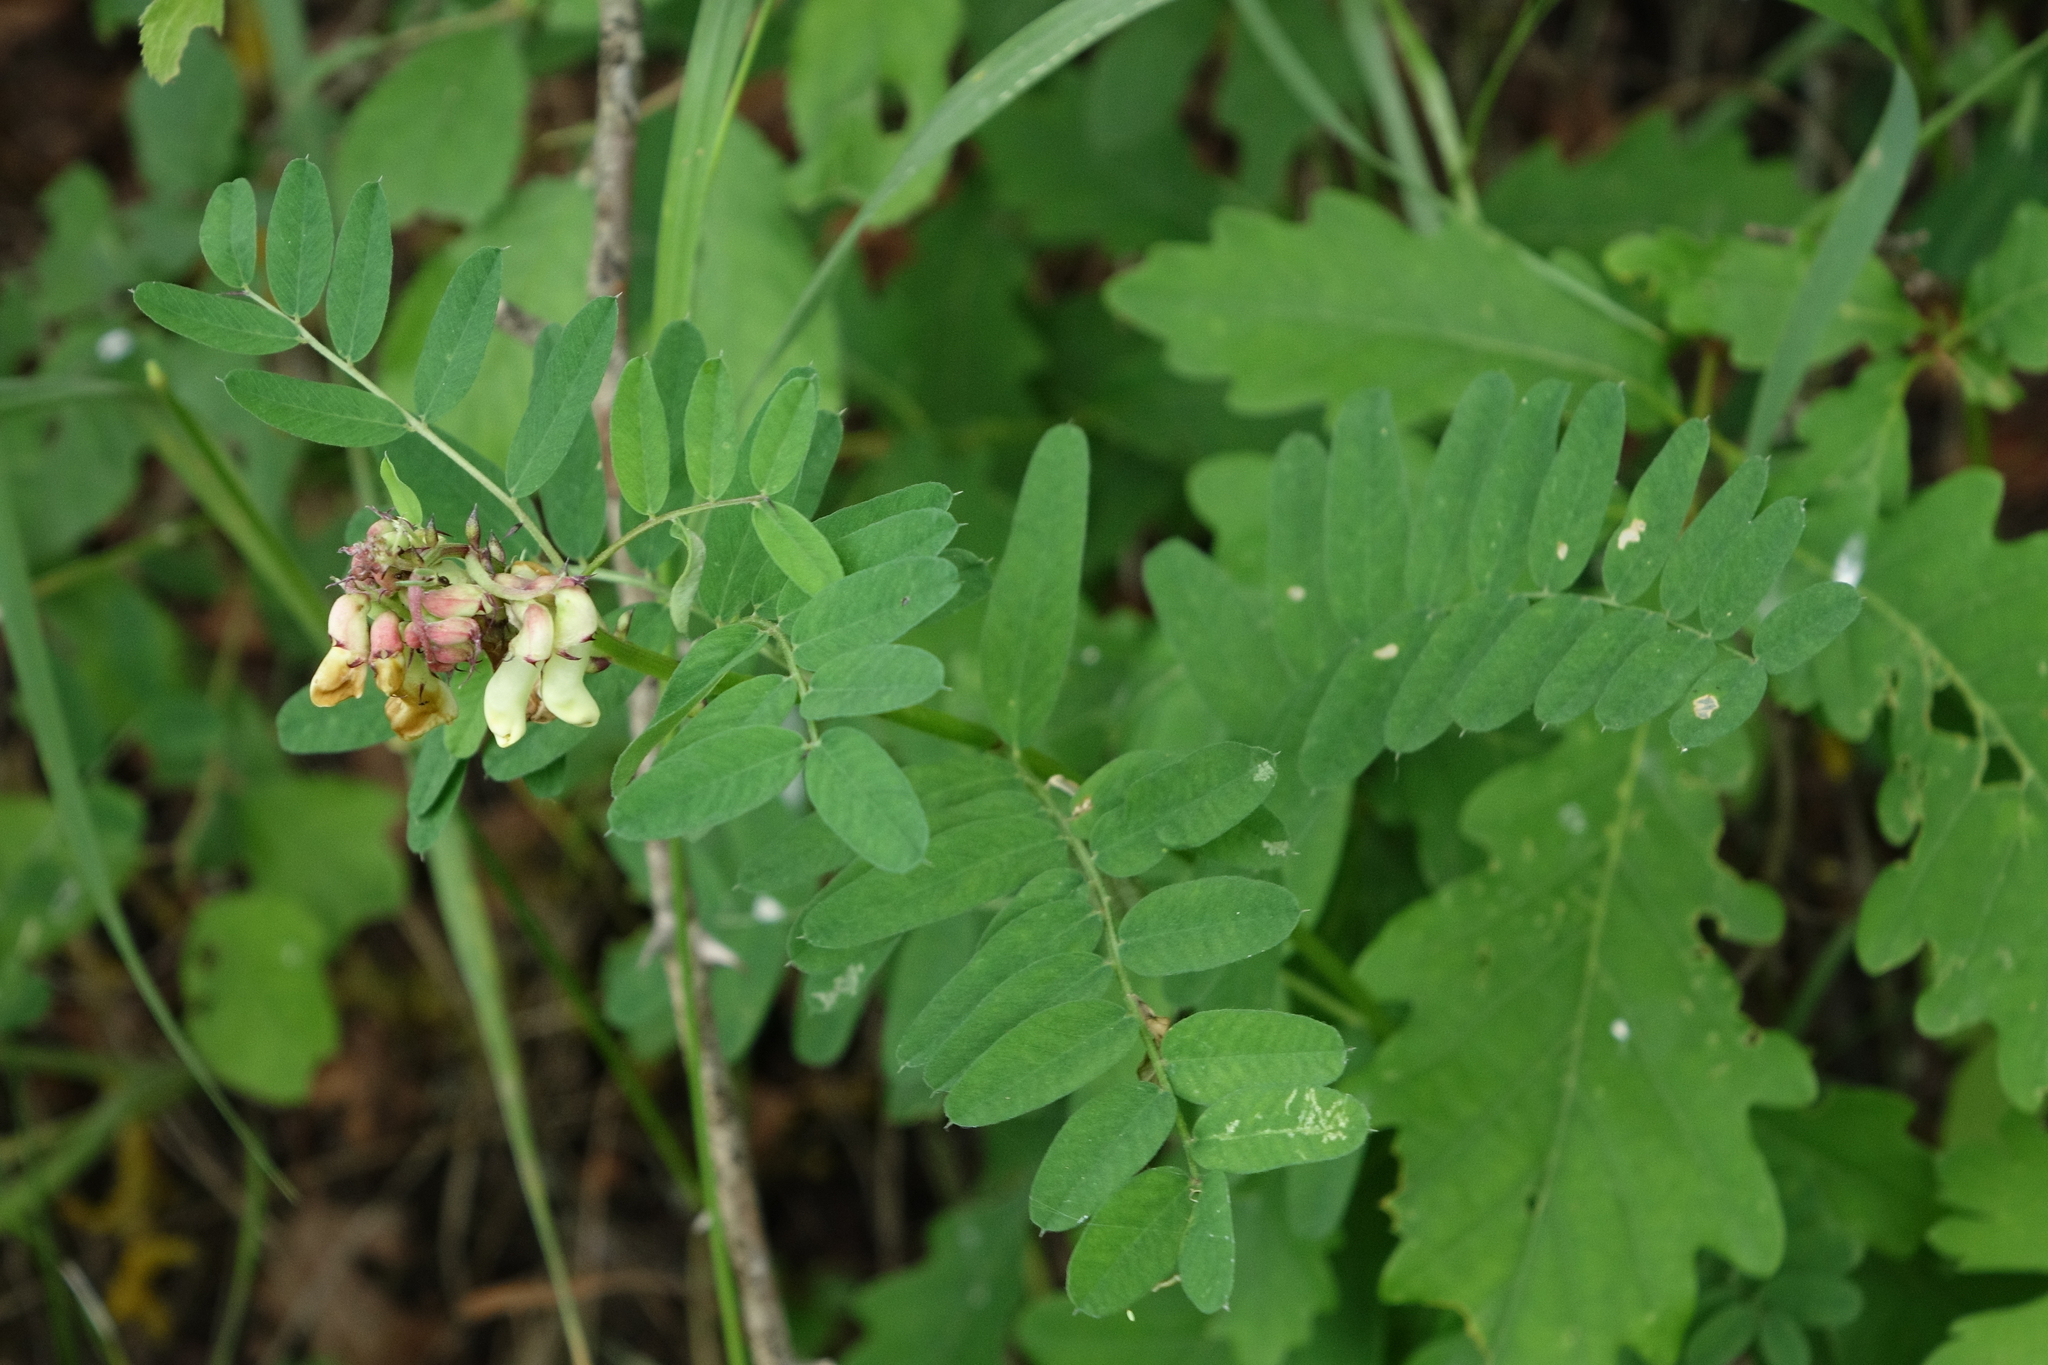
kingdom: Plantae
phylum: Tracheophyta
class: Magnoliopsida
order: Fabales
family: Fabaceae
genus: Vicia
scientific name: Vicia abbreviata
